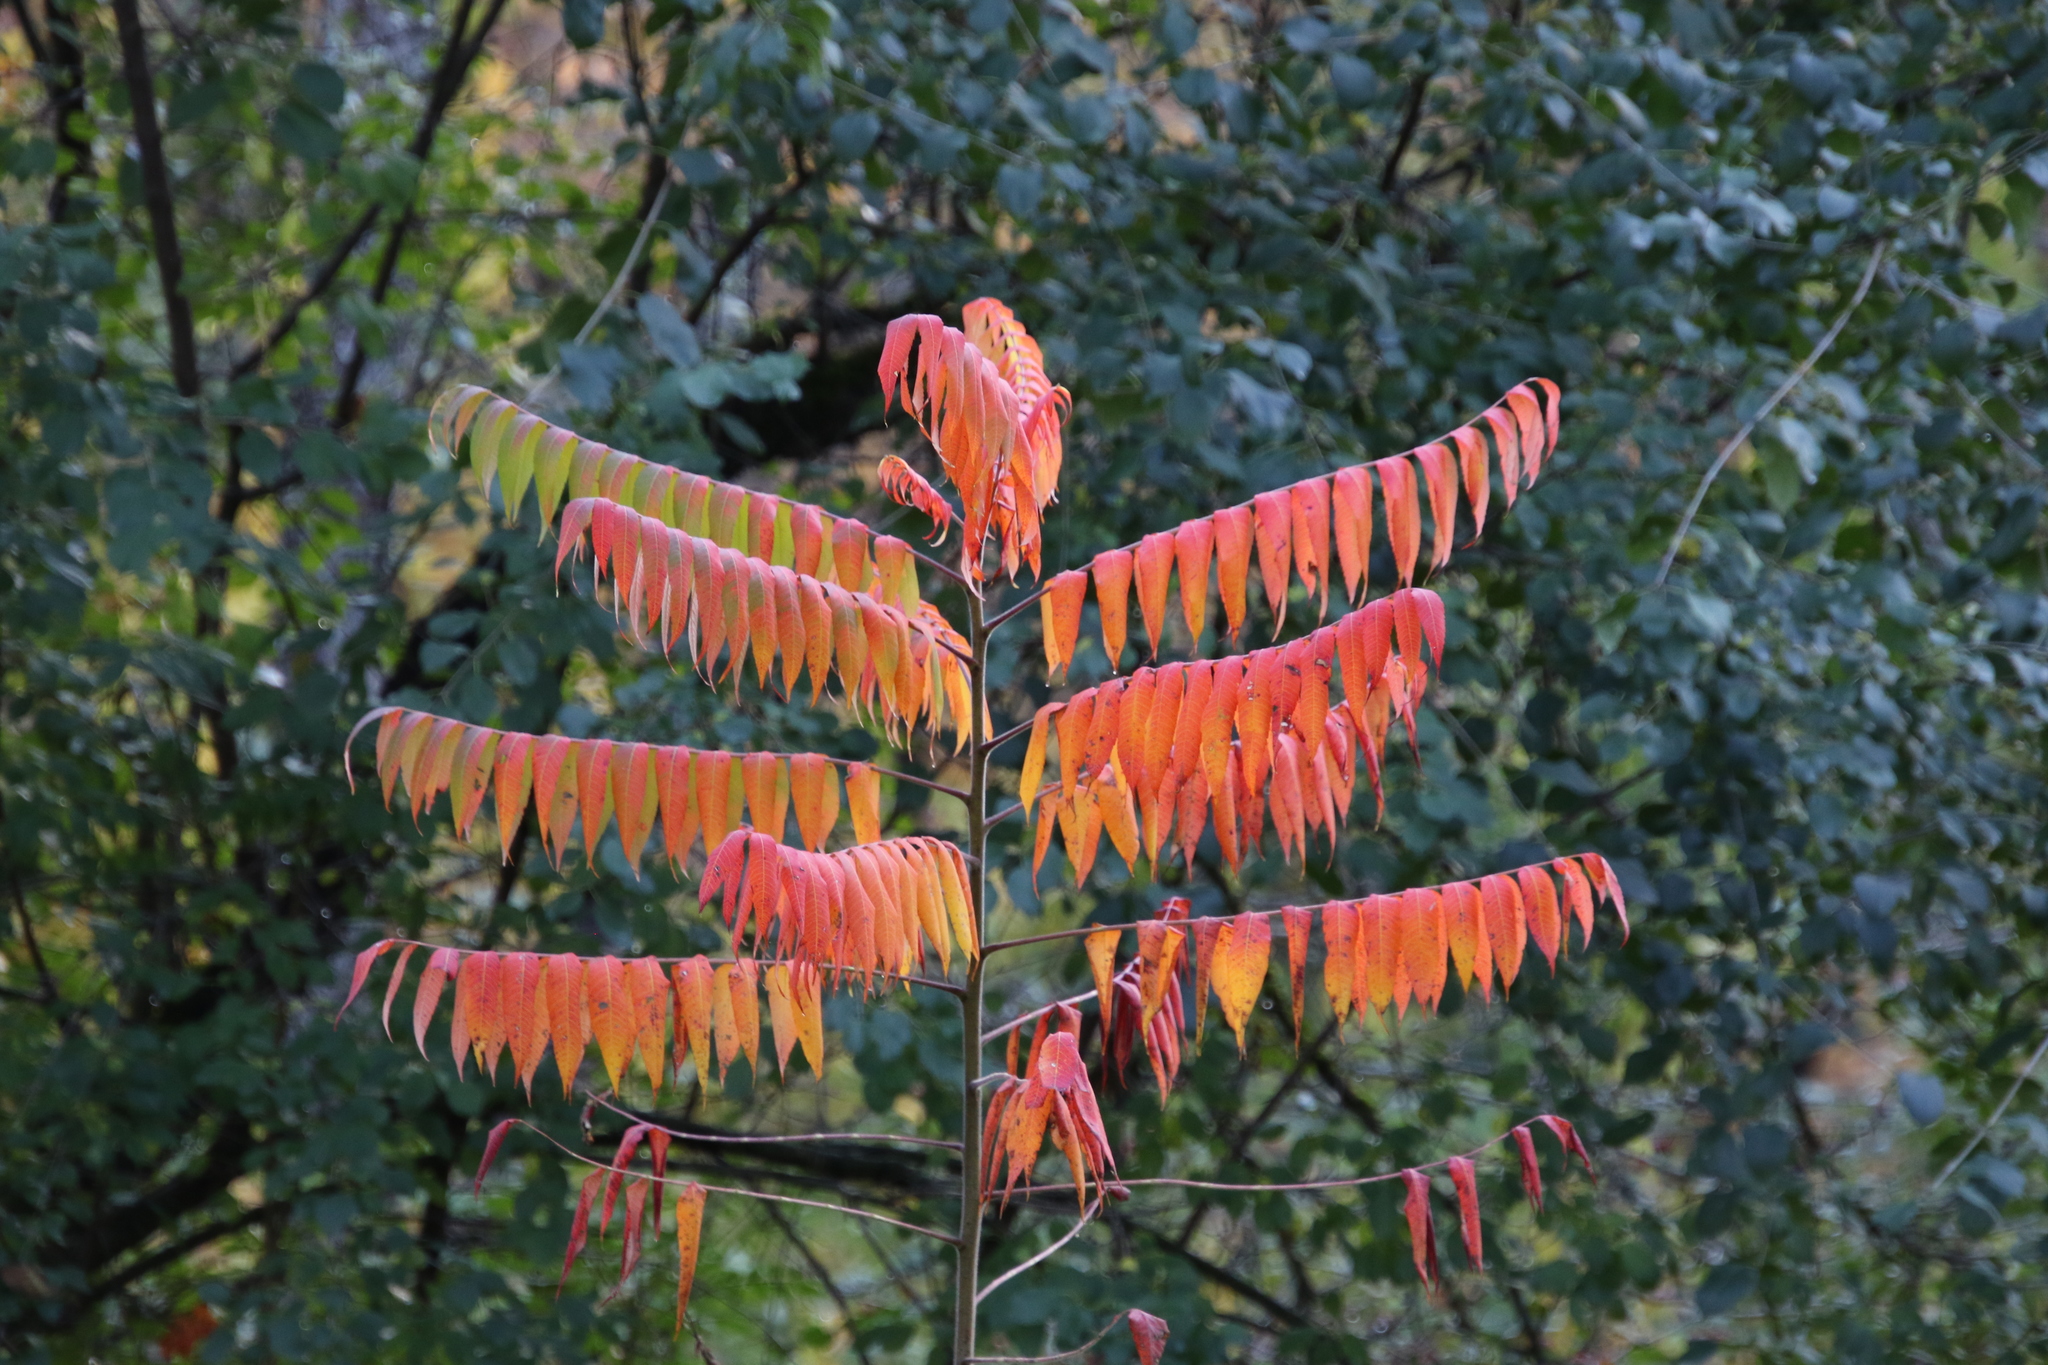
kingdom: Plantae
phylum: Tracheophyta
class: Magnoliopsida
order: Sapindales
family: Anacardiaceae
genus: Rhus
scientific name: Rhus typhina
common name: Staghorn sumac
